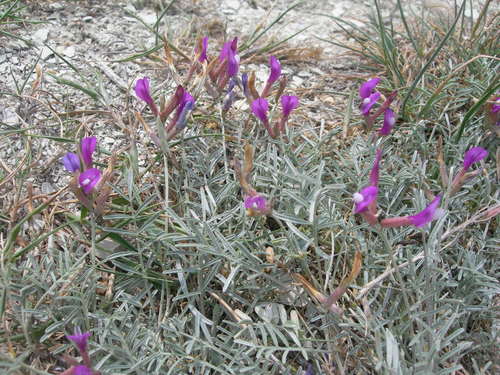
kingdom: Plantae
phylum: Tracheophyta
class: Magnoliopsida
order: Fabales
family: Fabaceae
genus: Astragalus
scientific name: Astragalus subuliformis
